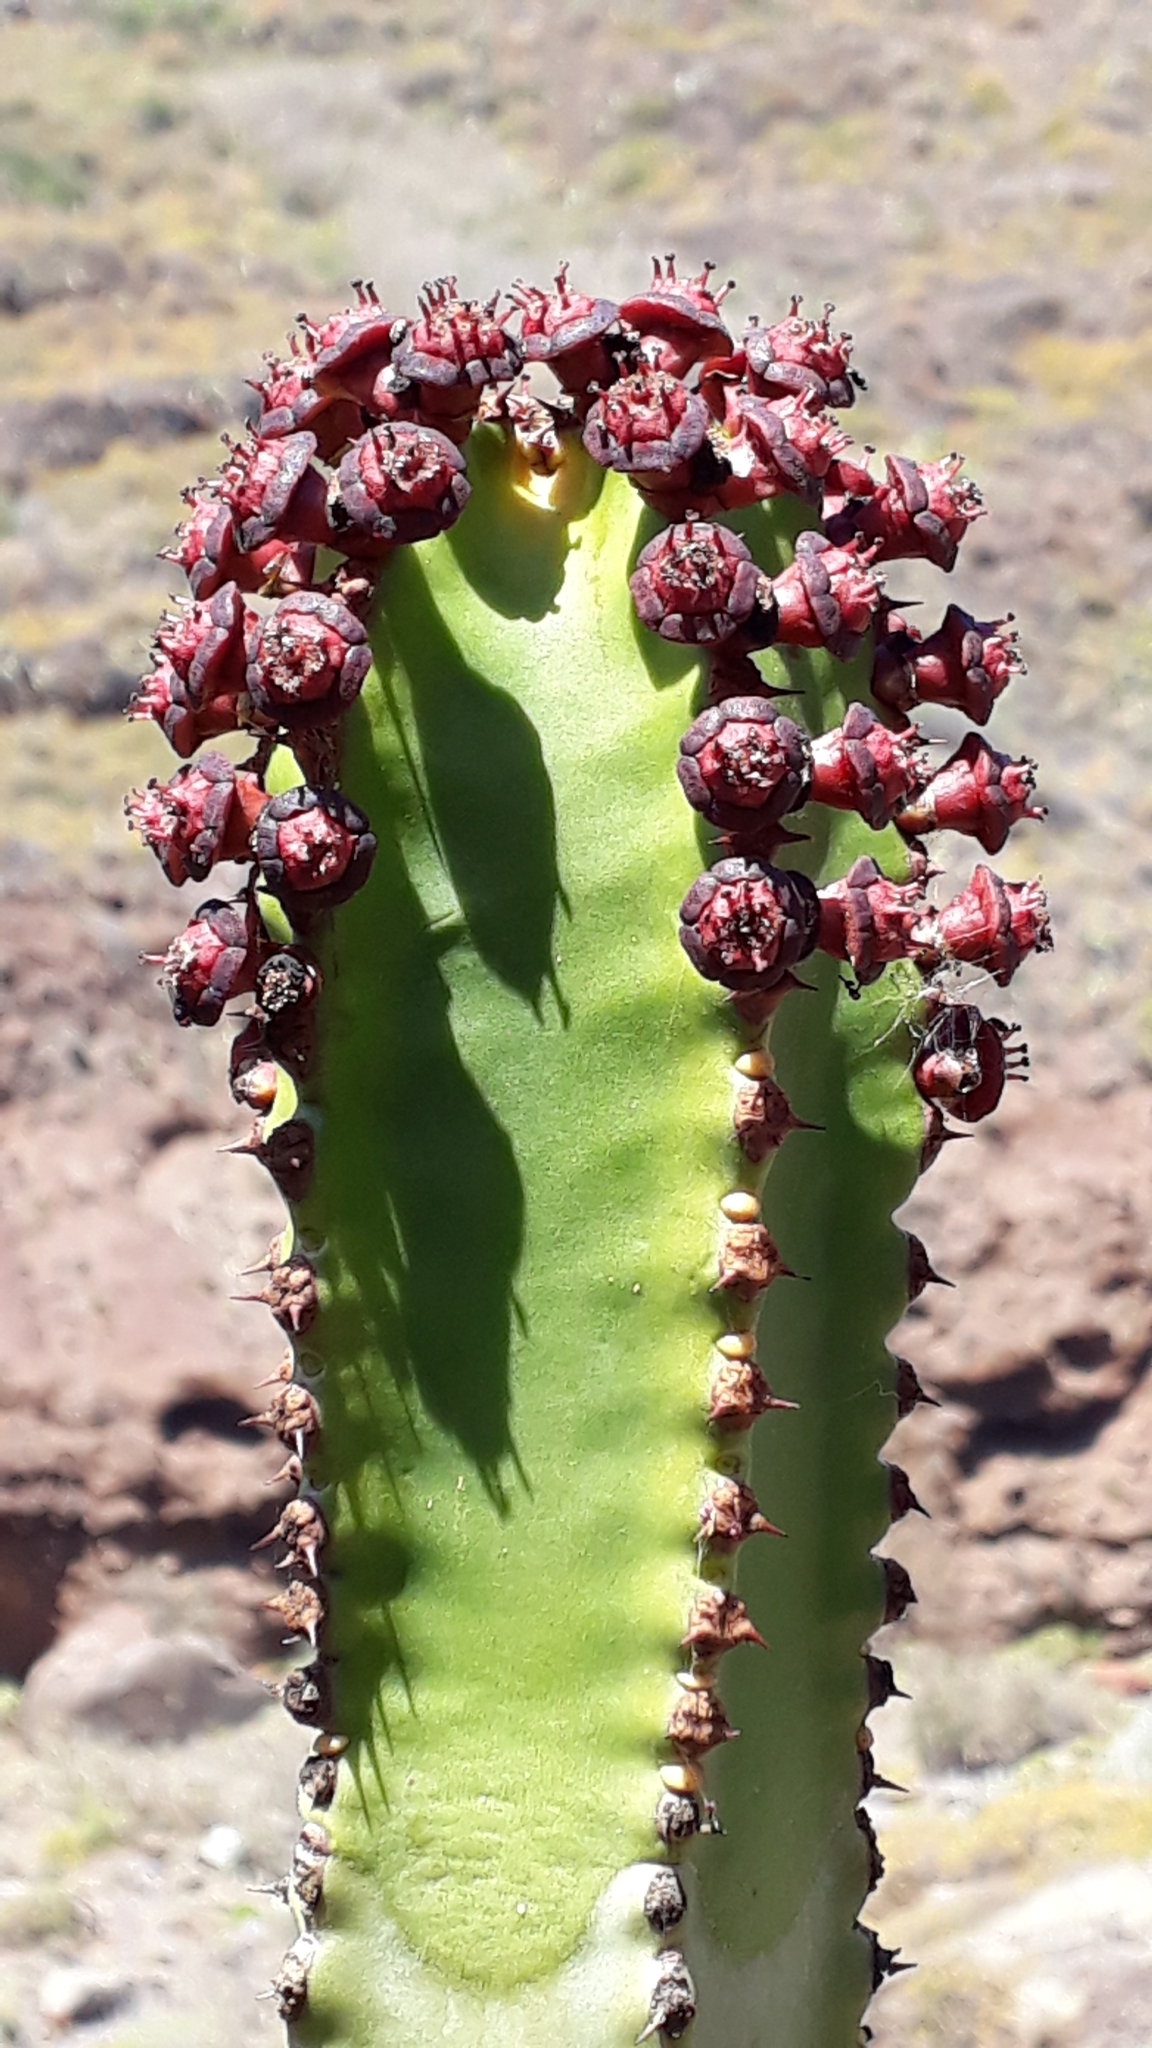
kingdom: Plantae
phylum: Tracheophyta
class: Magnoliopsida
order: Malpighiales
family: Euphorbiaceae
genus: Euphorbia
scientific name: Euphorbia canariensis
